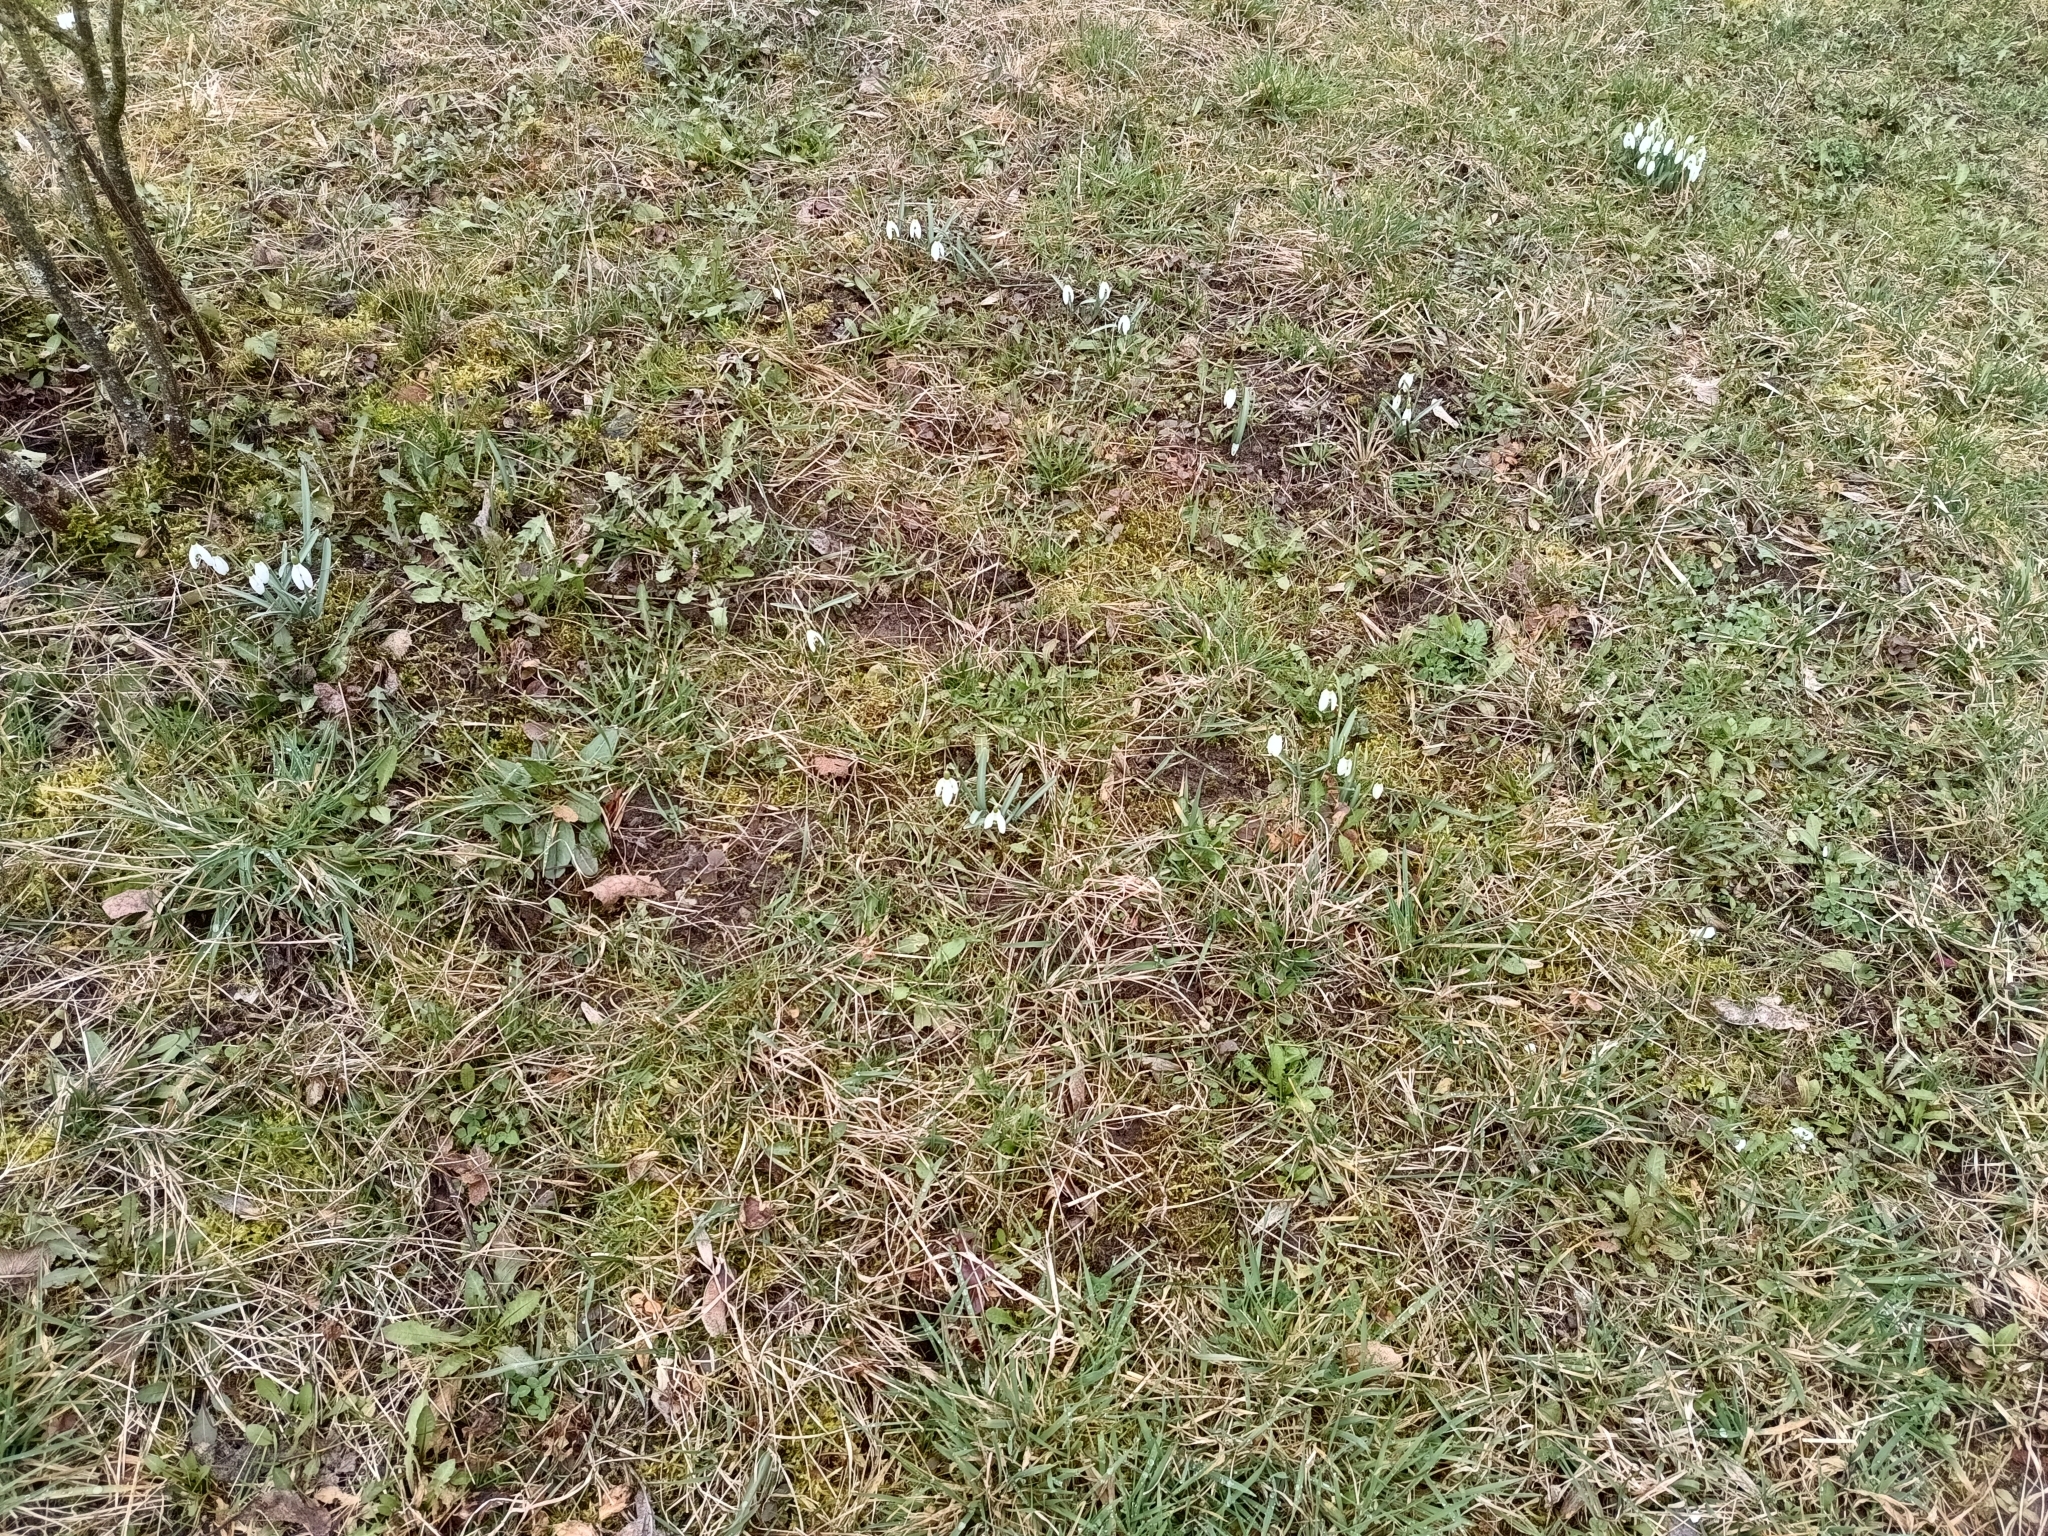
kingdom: Plantae
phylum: Tracheophyta
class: Liliopsida
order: Asparagales
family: Amaryllidaceae
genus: Galanthus
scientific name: Galanthus nivalis
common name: Snowdrop
